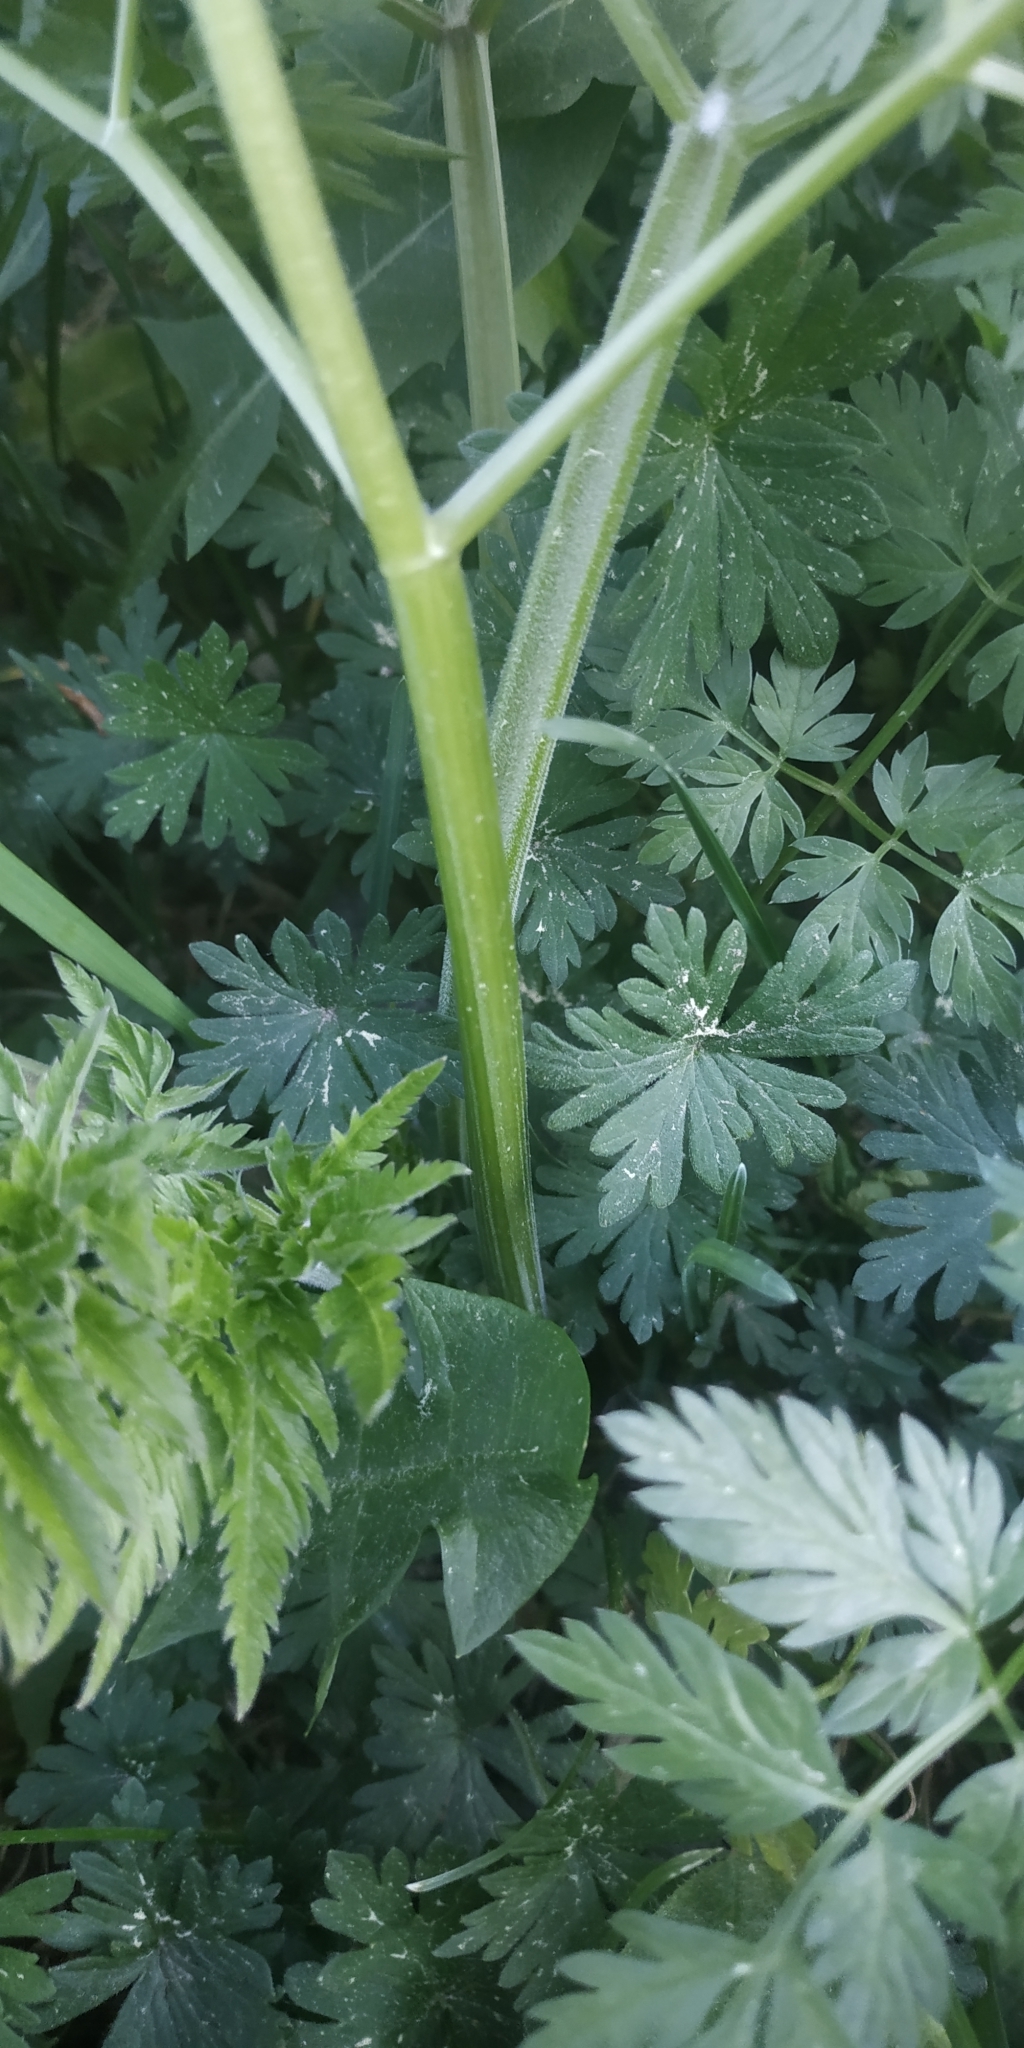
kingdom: Plantae
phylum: Tracheophyta
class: Magnoliopsida
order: Apiales
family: Apiaceae
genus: Anthriscus
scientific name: Anthriscus sylvestris
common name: Cow parsley
